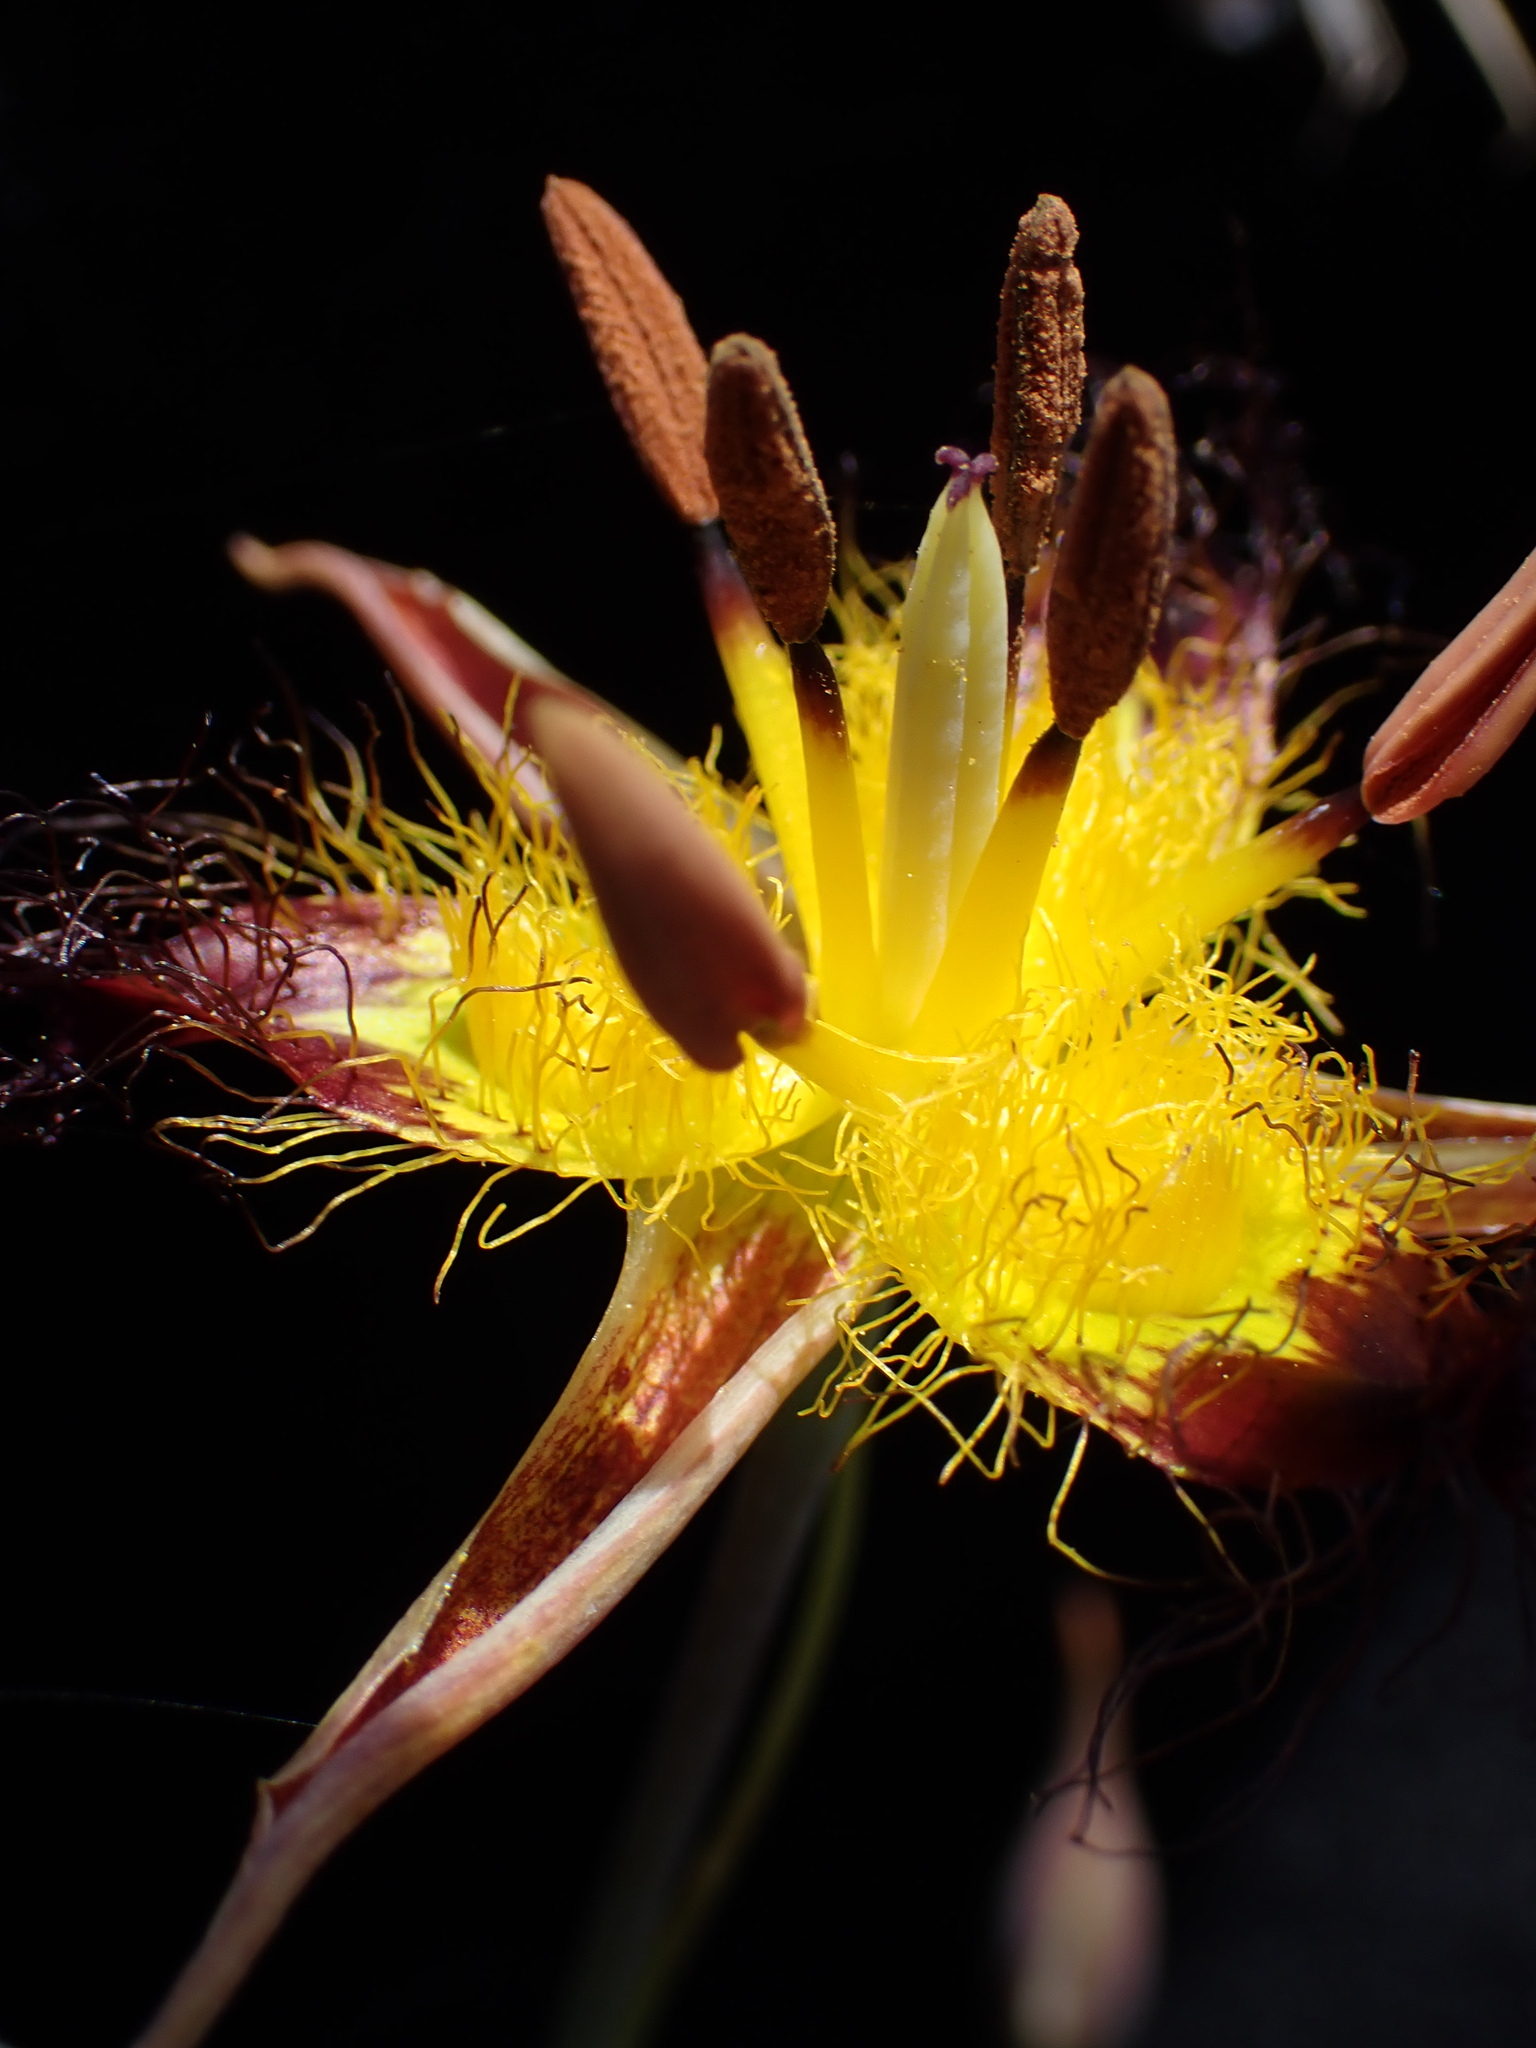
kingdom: Plantae
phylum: Tracheophyta
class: Liliopsida
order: Liliales
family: Liliaceae
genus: Calochortus
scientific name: Calochortus obispoensis
